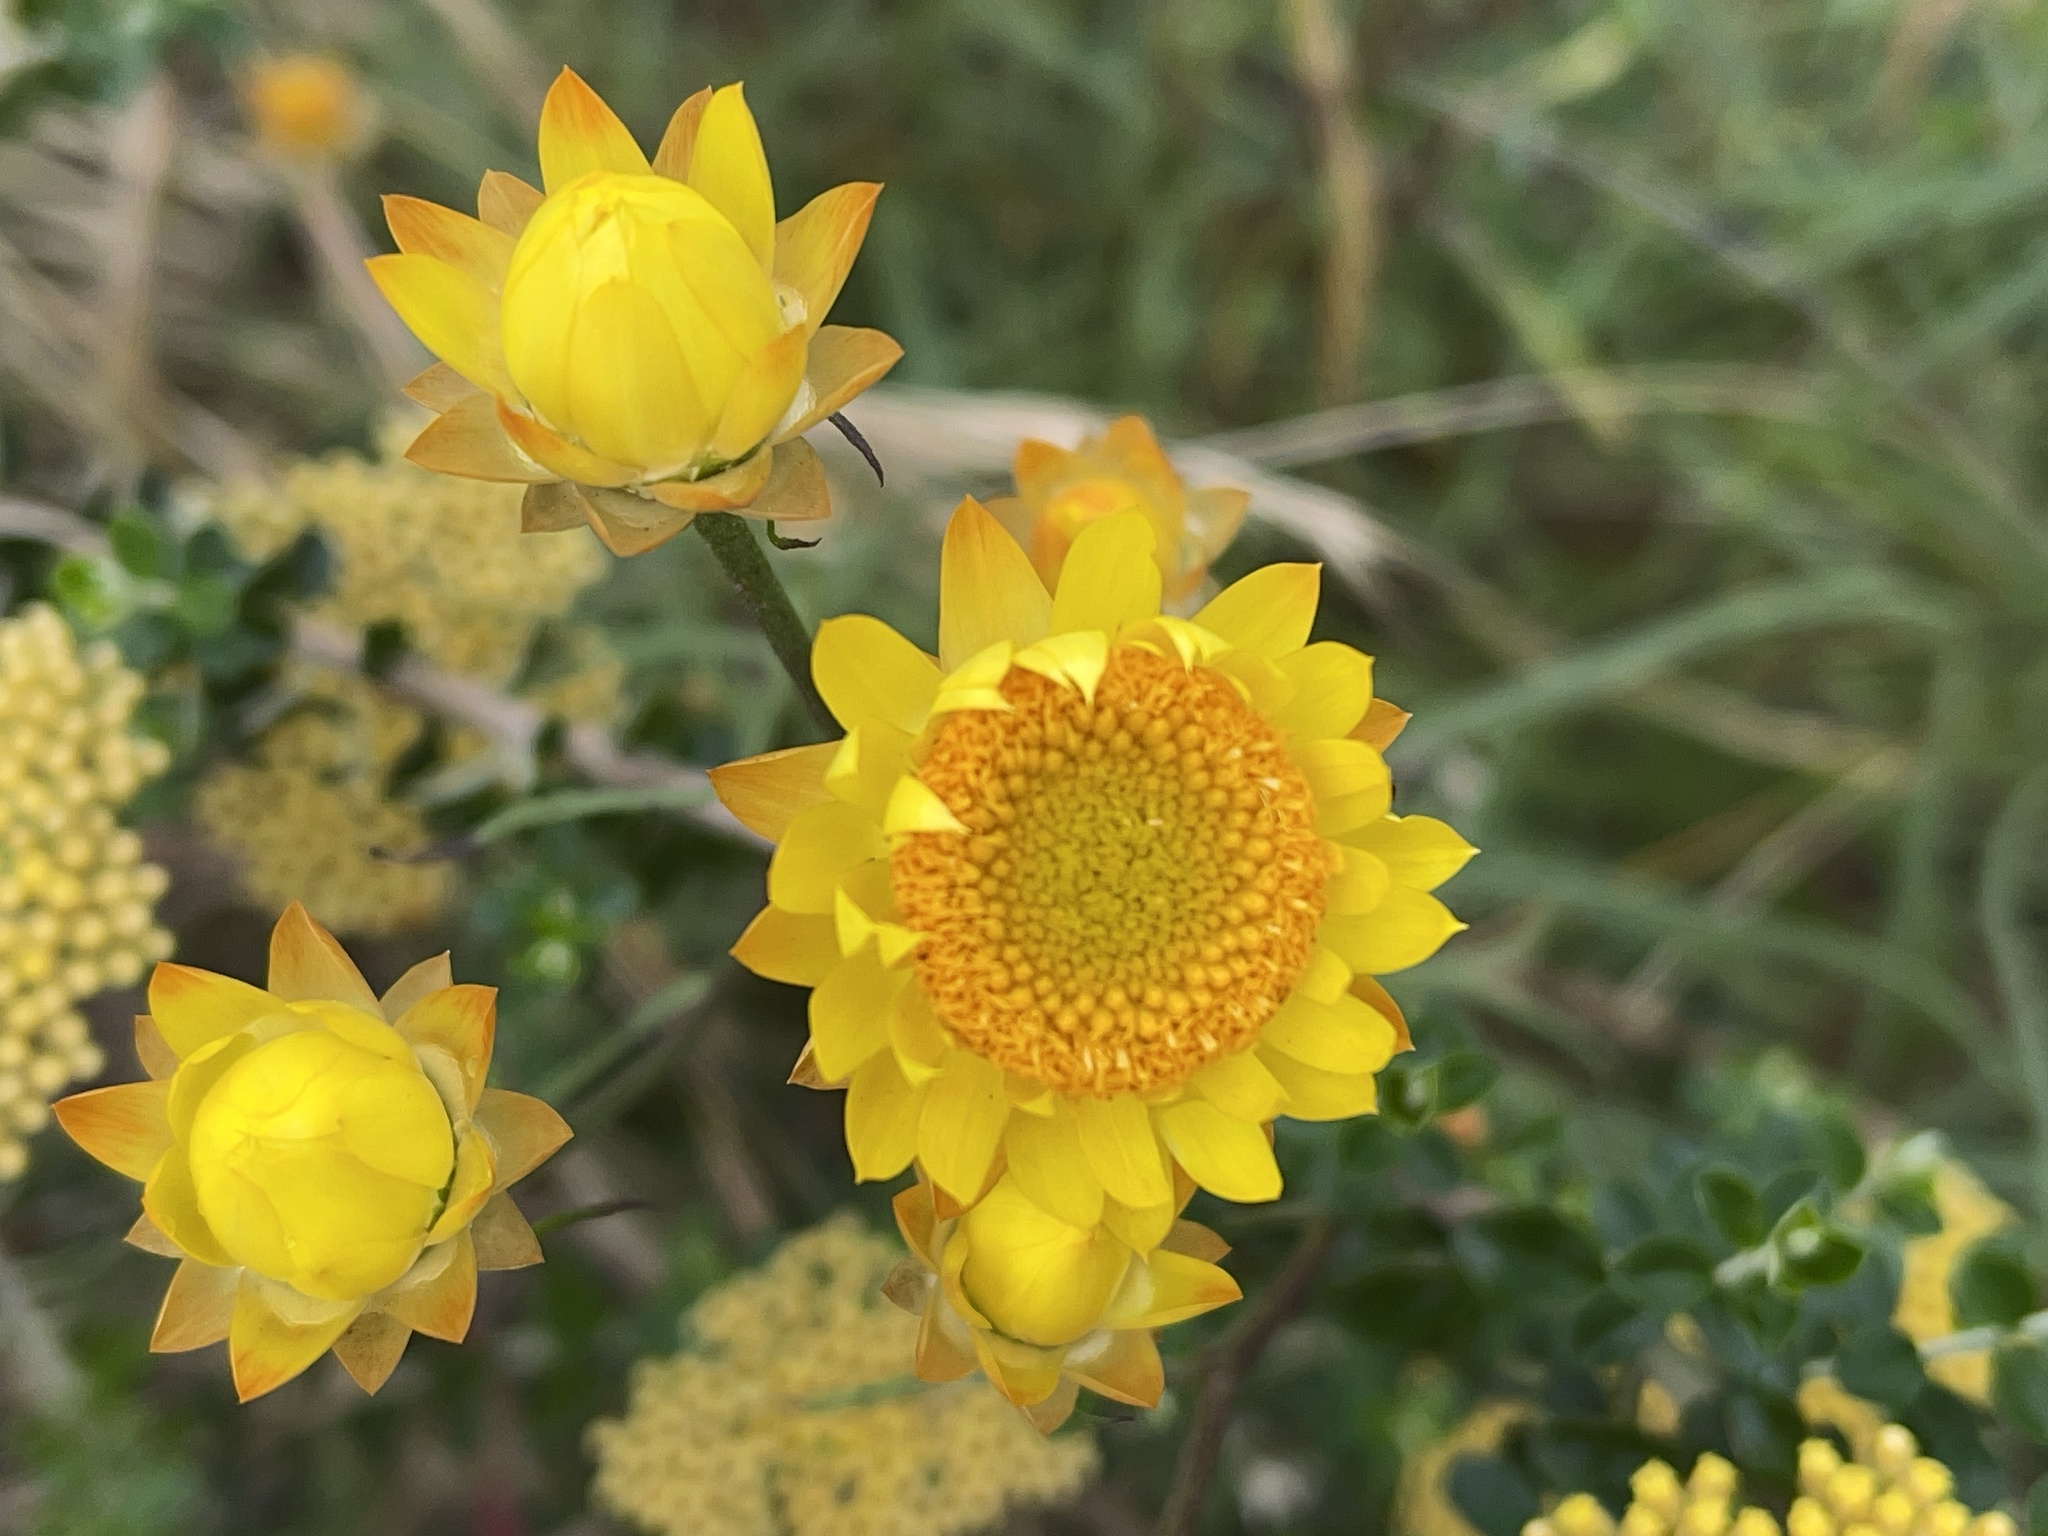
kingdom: Plantae
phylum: Tracheophyta
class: Magnoliopsida
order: Asterales
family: Asteraceae
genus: Xerochrysum
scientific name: Xerochrysum viscosum
